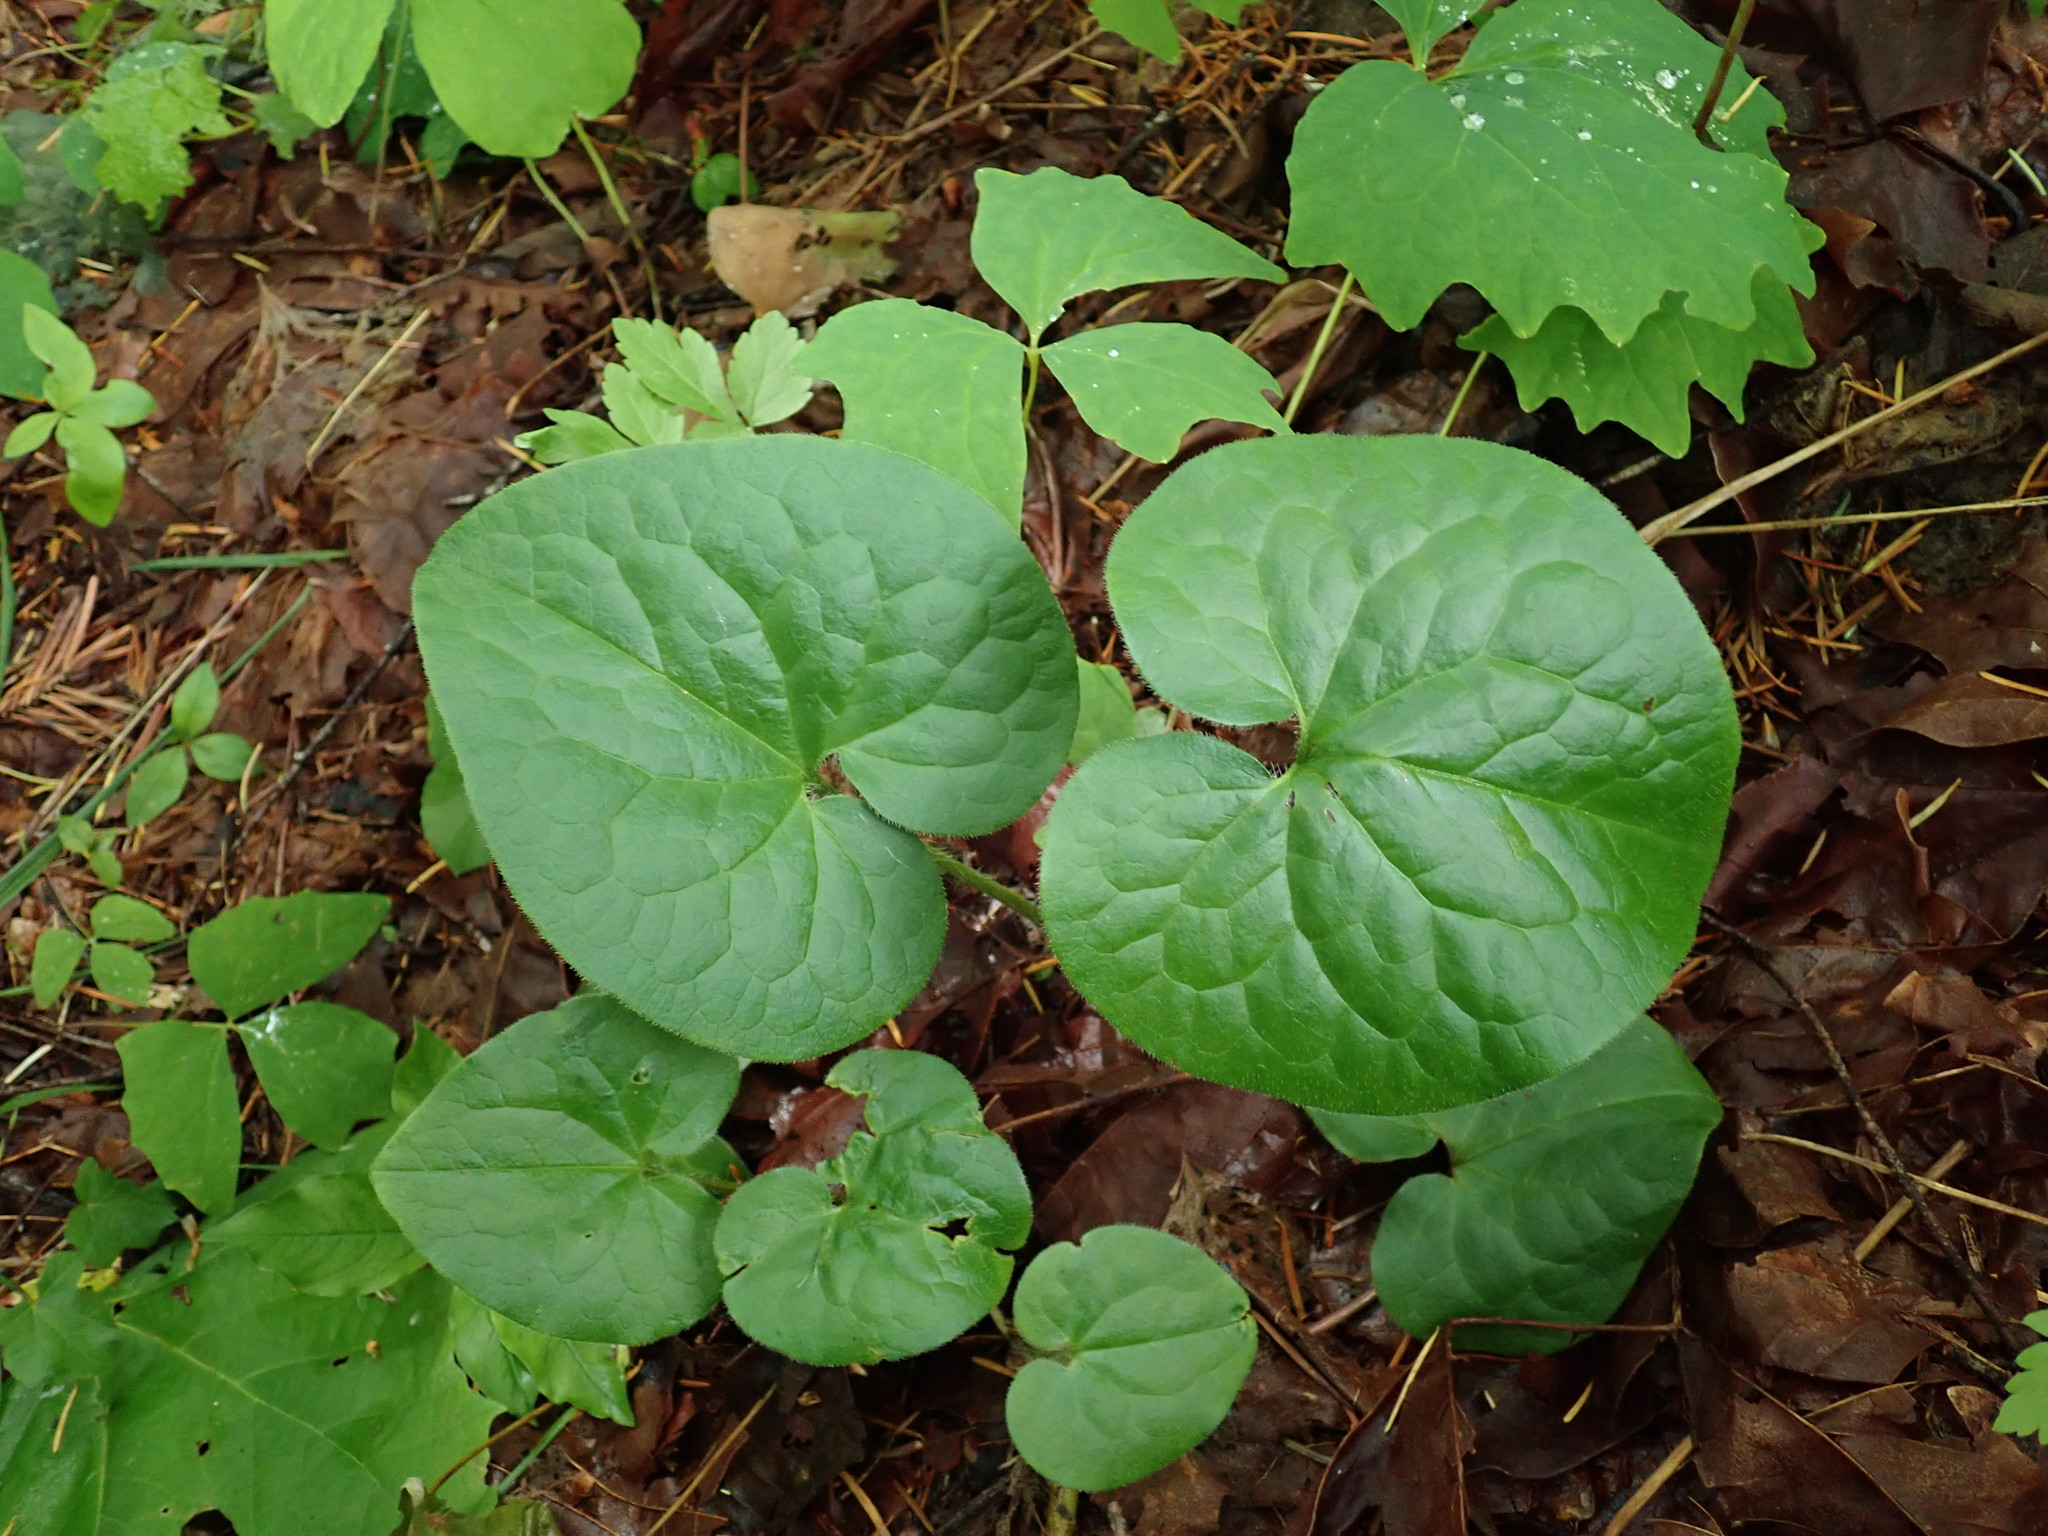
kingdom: Plantae
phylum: Tracheophyta
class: Magnoliopsida
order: Piperales
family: Aristolochiaceae
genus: Asarum
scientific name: Asarum caudatum
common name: Wild ginger
